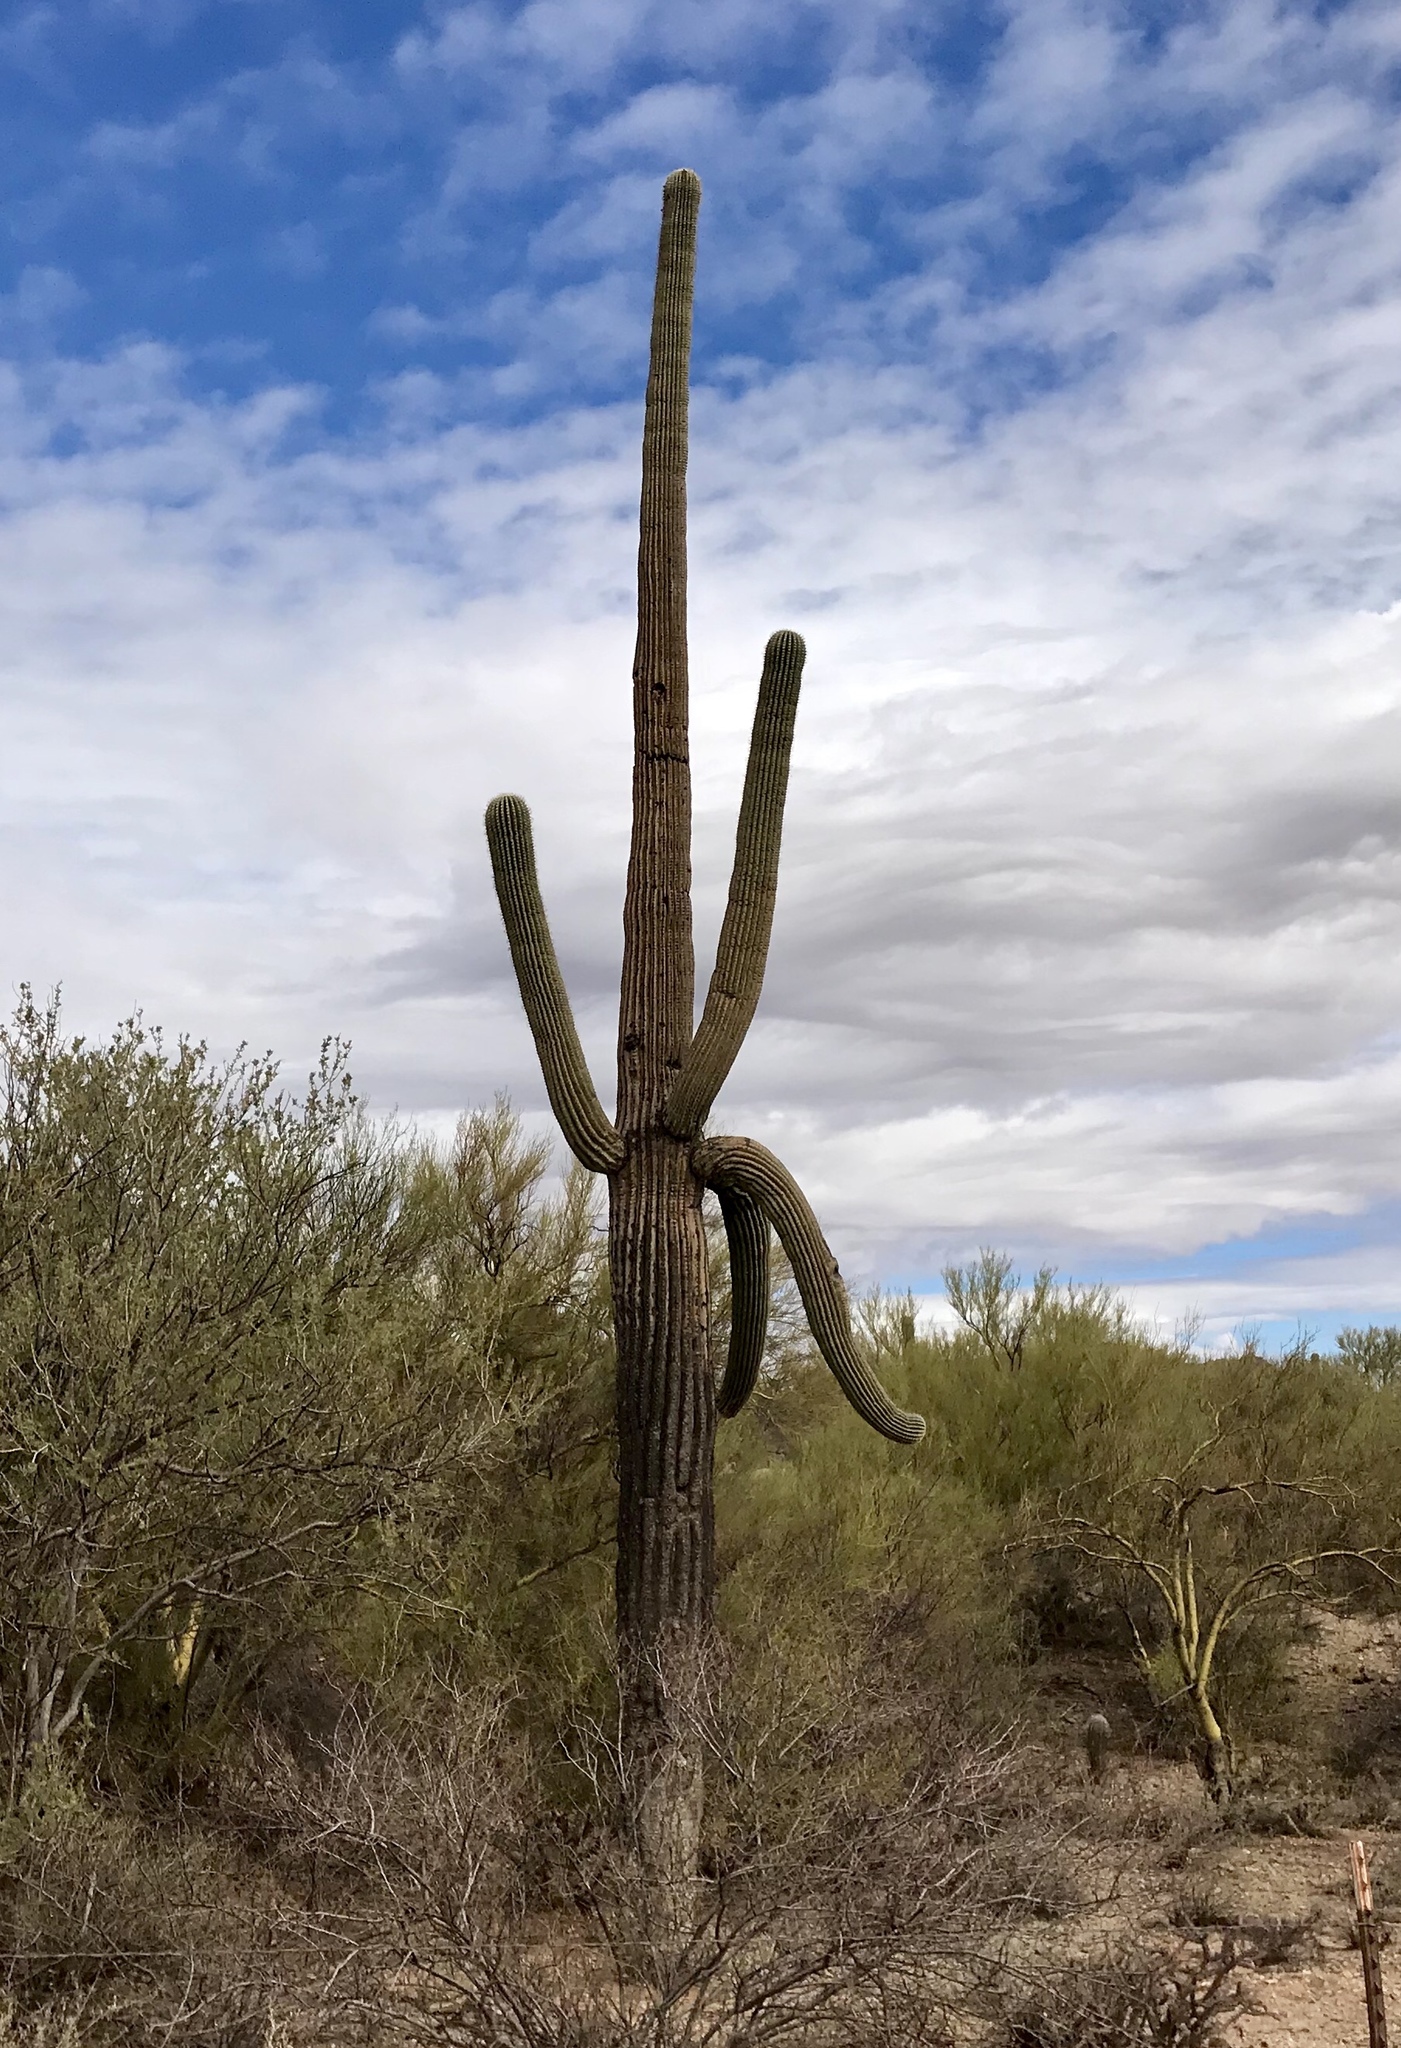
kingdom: Plantae
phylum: Tracheophyta
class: Magnoliopsida
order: Caryophyllales
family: Cactaceae
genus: Carnegiea
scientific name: Carnegiea gigantea
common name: Saguaro
